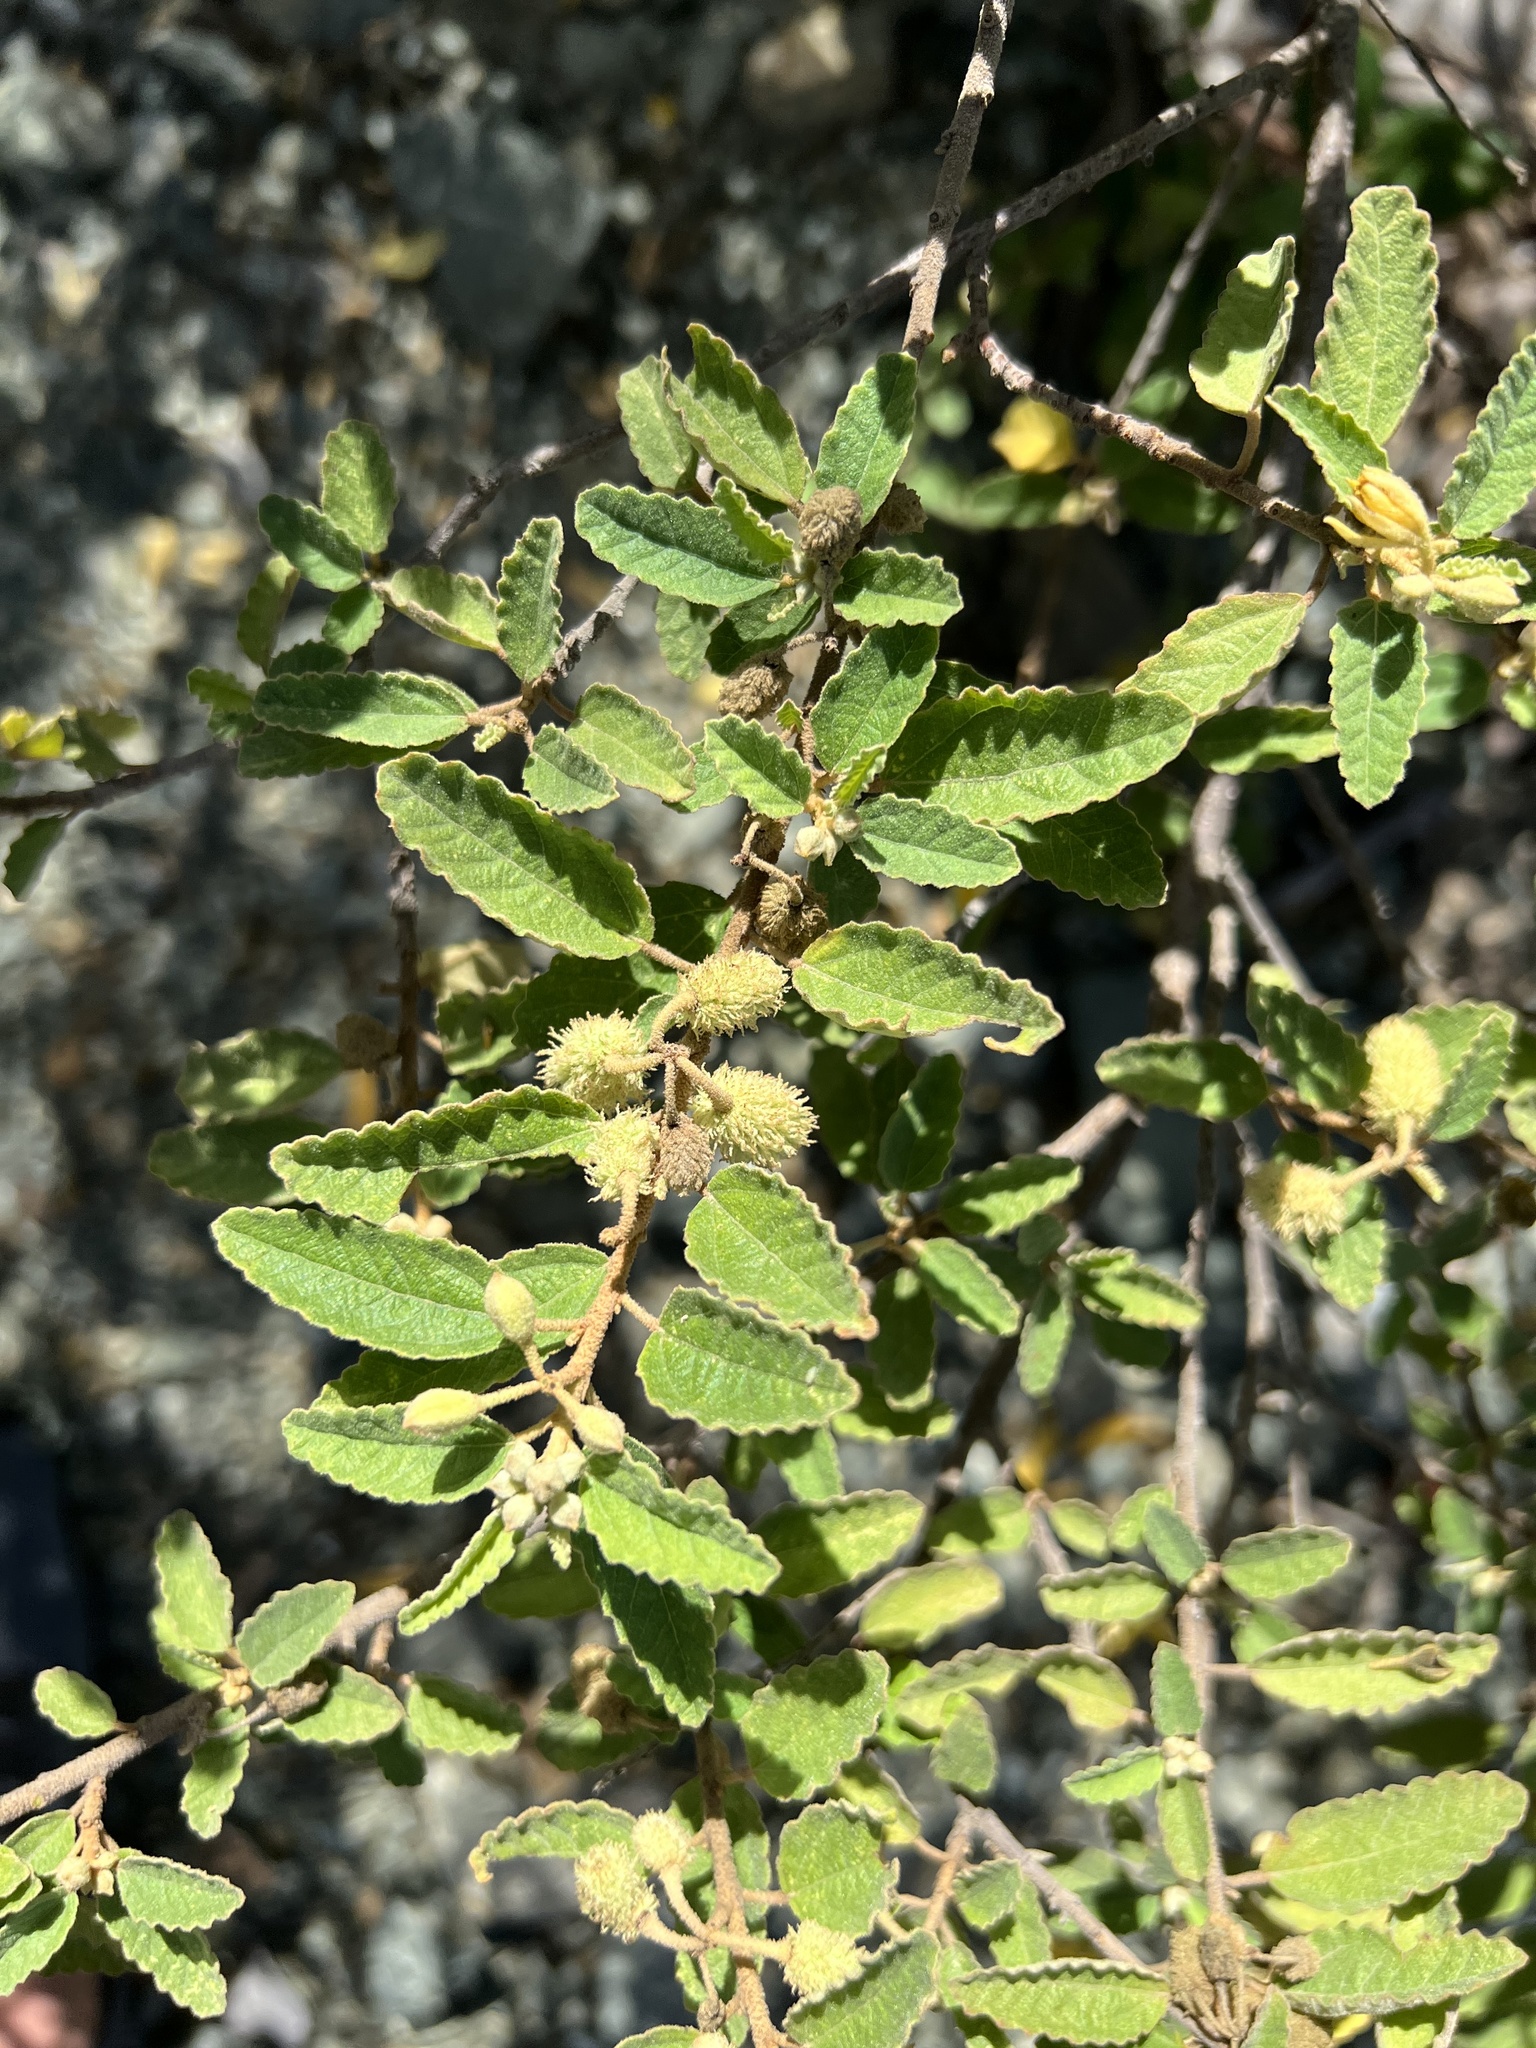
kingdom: Plantae
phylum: Tracheophyta
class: Magnoliopsida
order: Malvales
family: Malvaceae
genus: Corchorus
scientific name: Corchorus hirsutus
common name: Jackswitch
